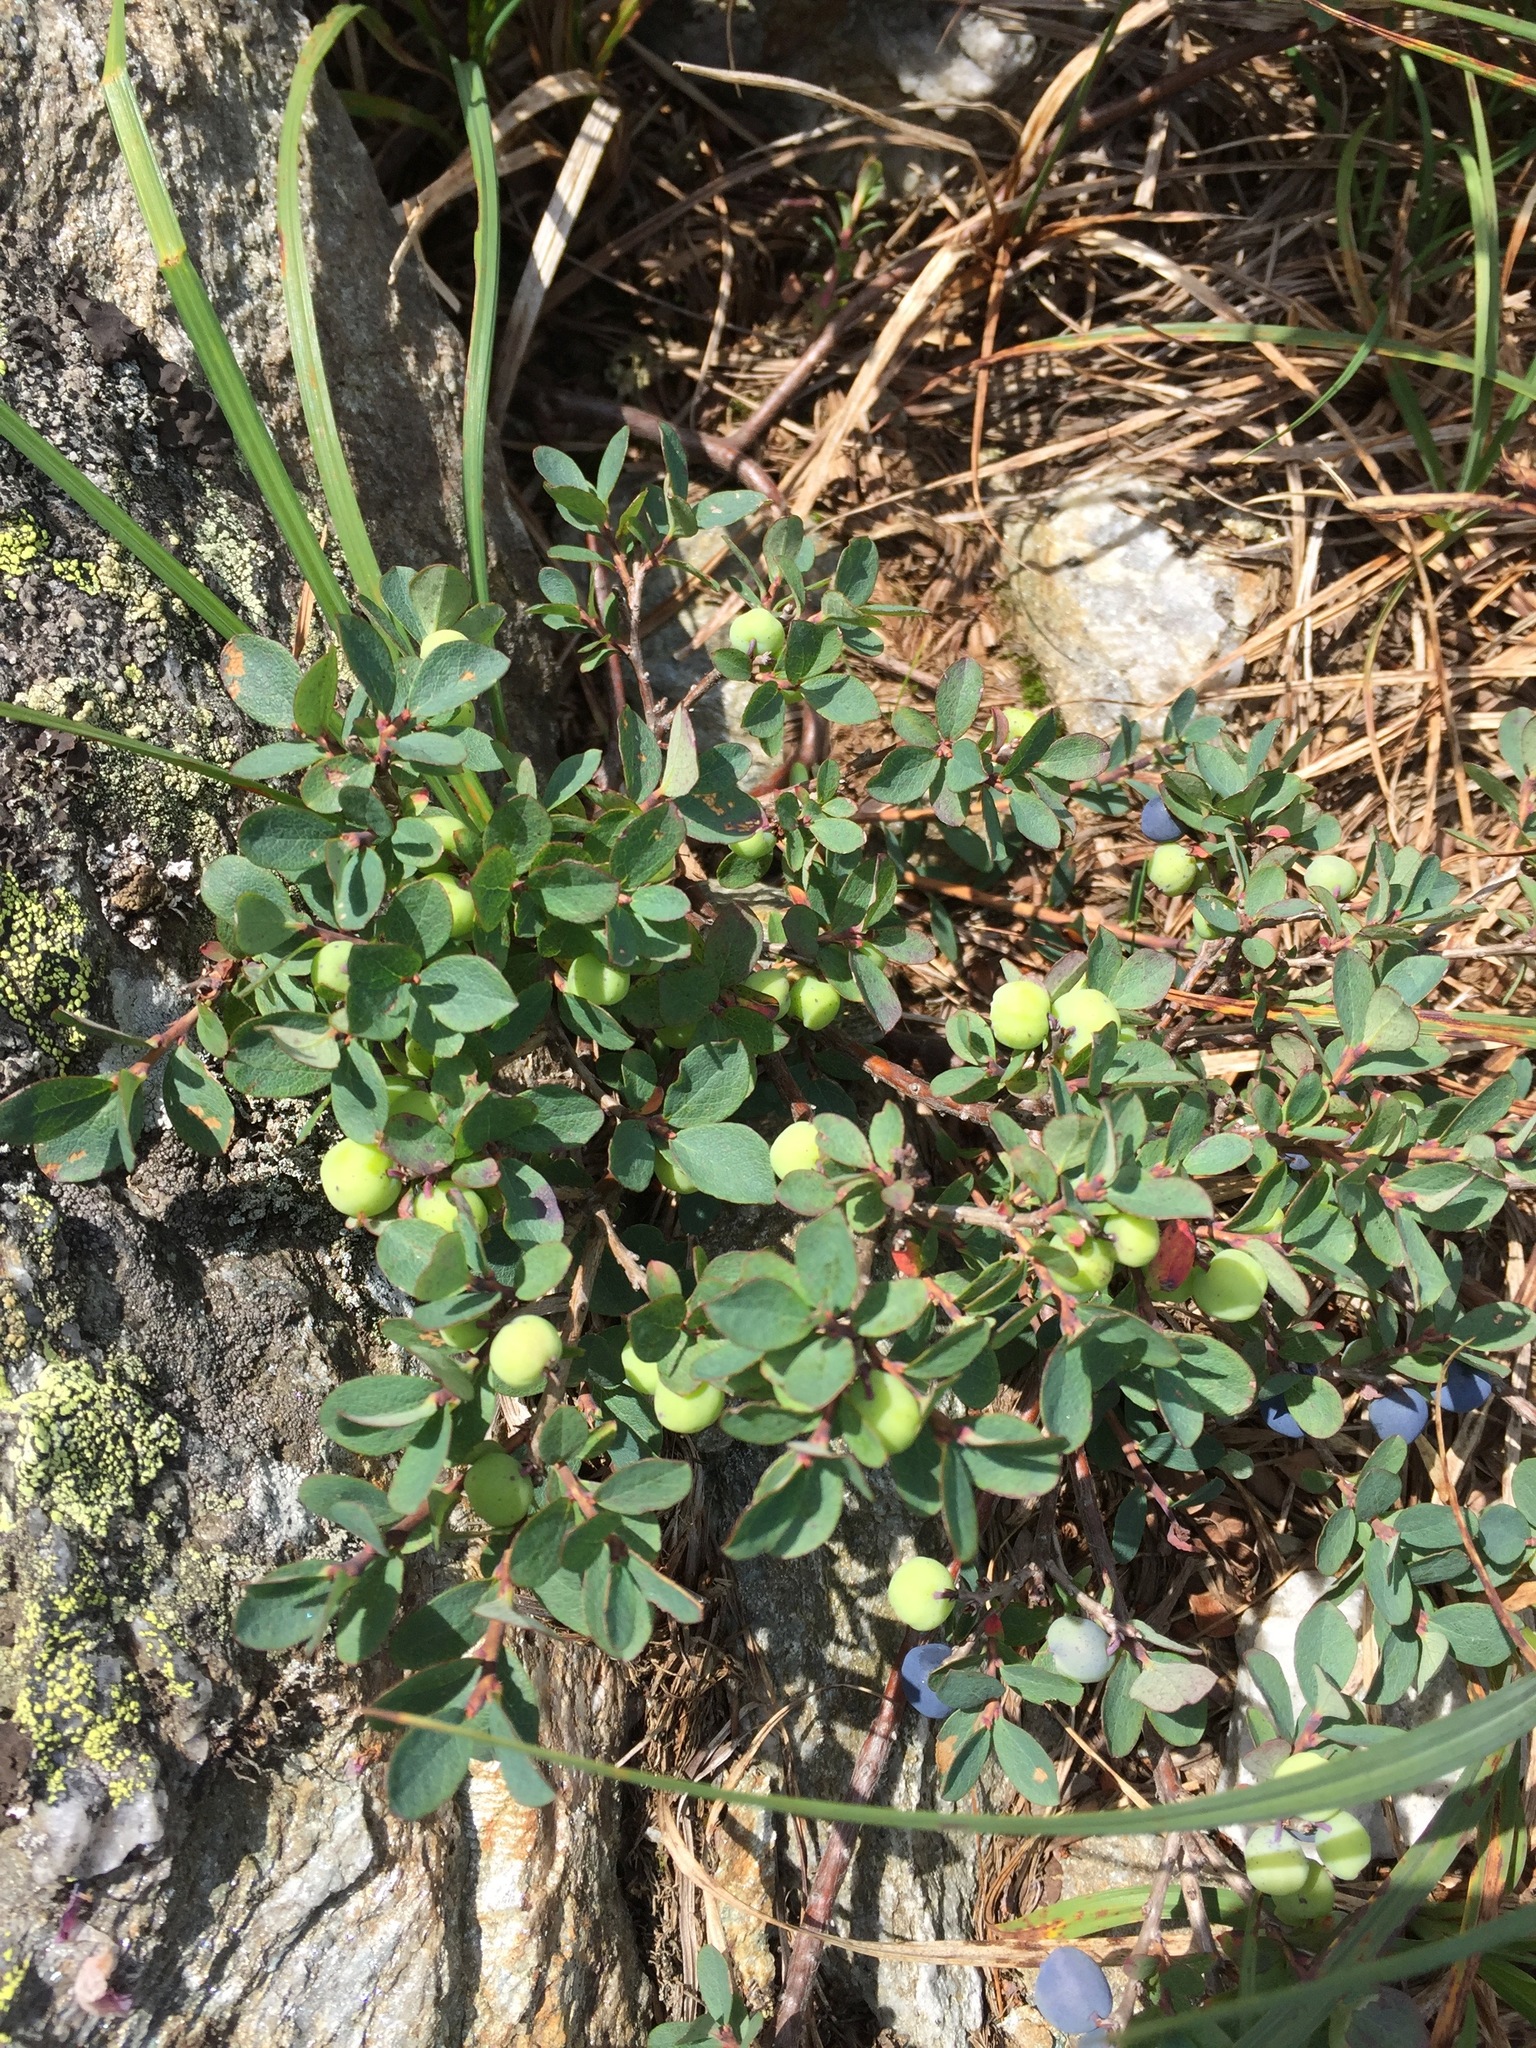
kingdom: Plantae
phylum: Tracheophyta
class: Magnoliopsida
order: Ericales
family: Ericaceae
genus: Vaccinium
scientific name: Vaccinium uliginosum
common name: Bog bilberry
